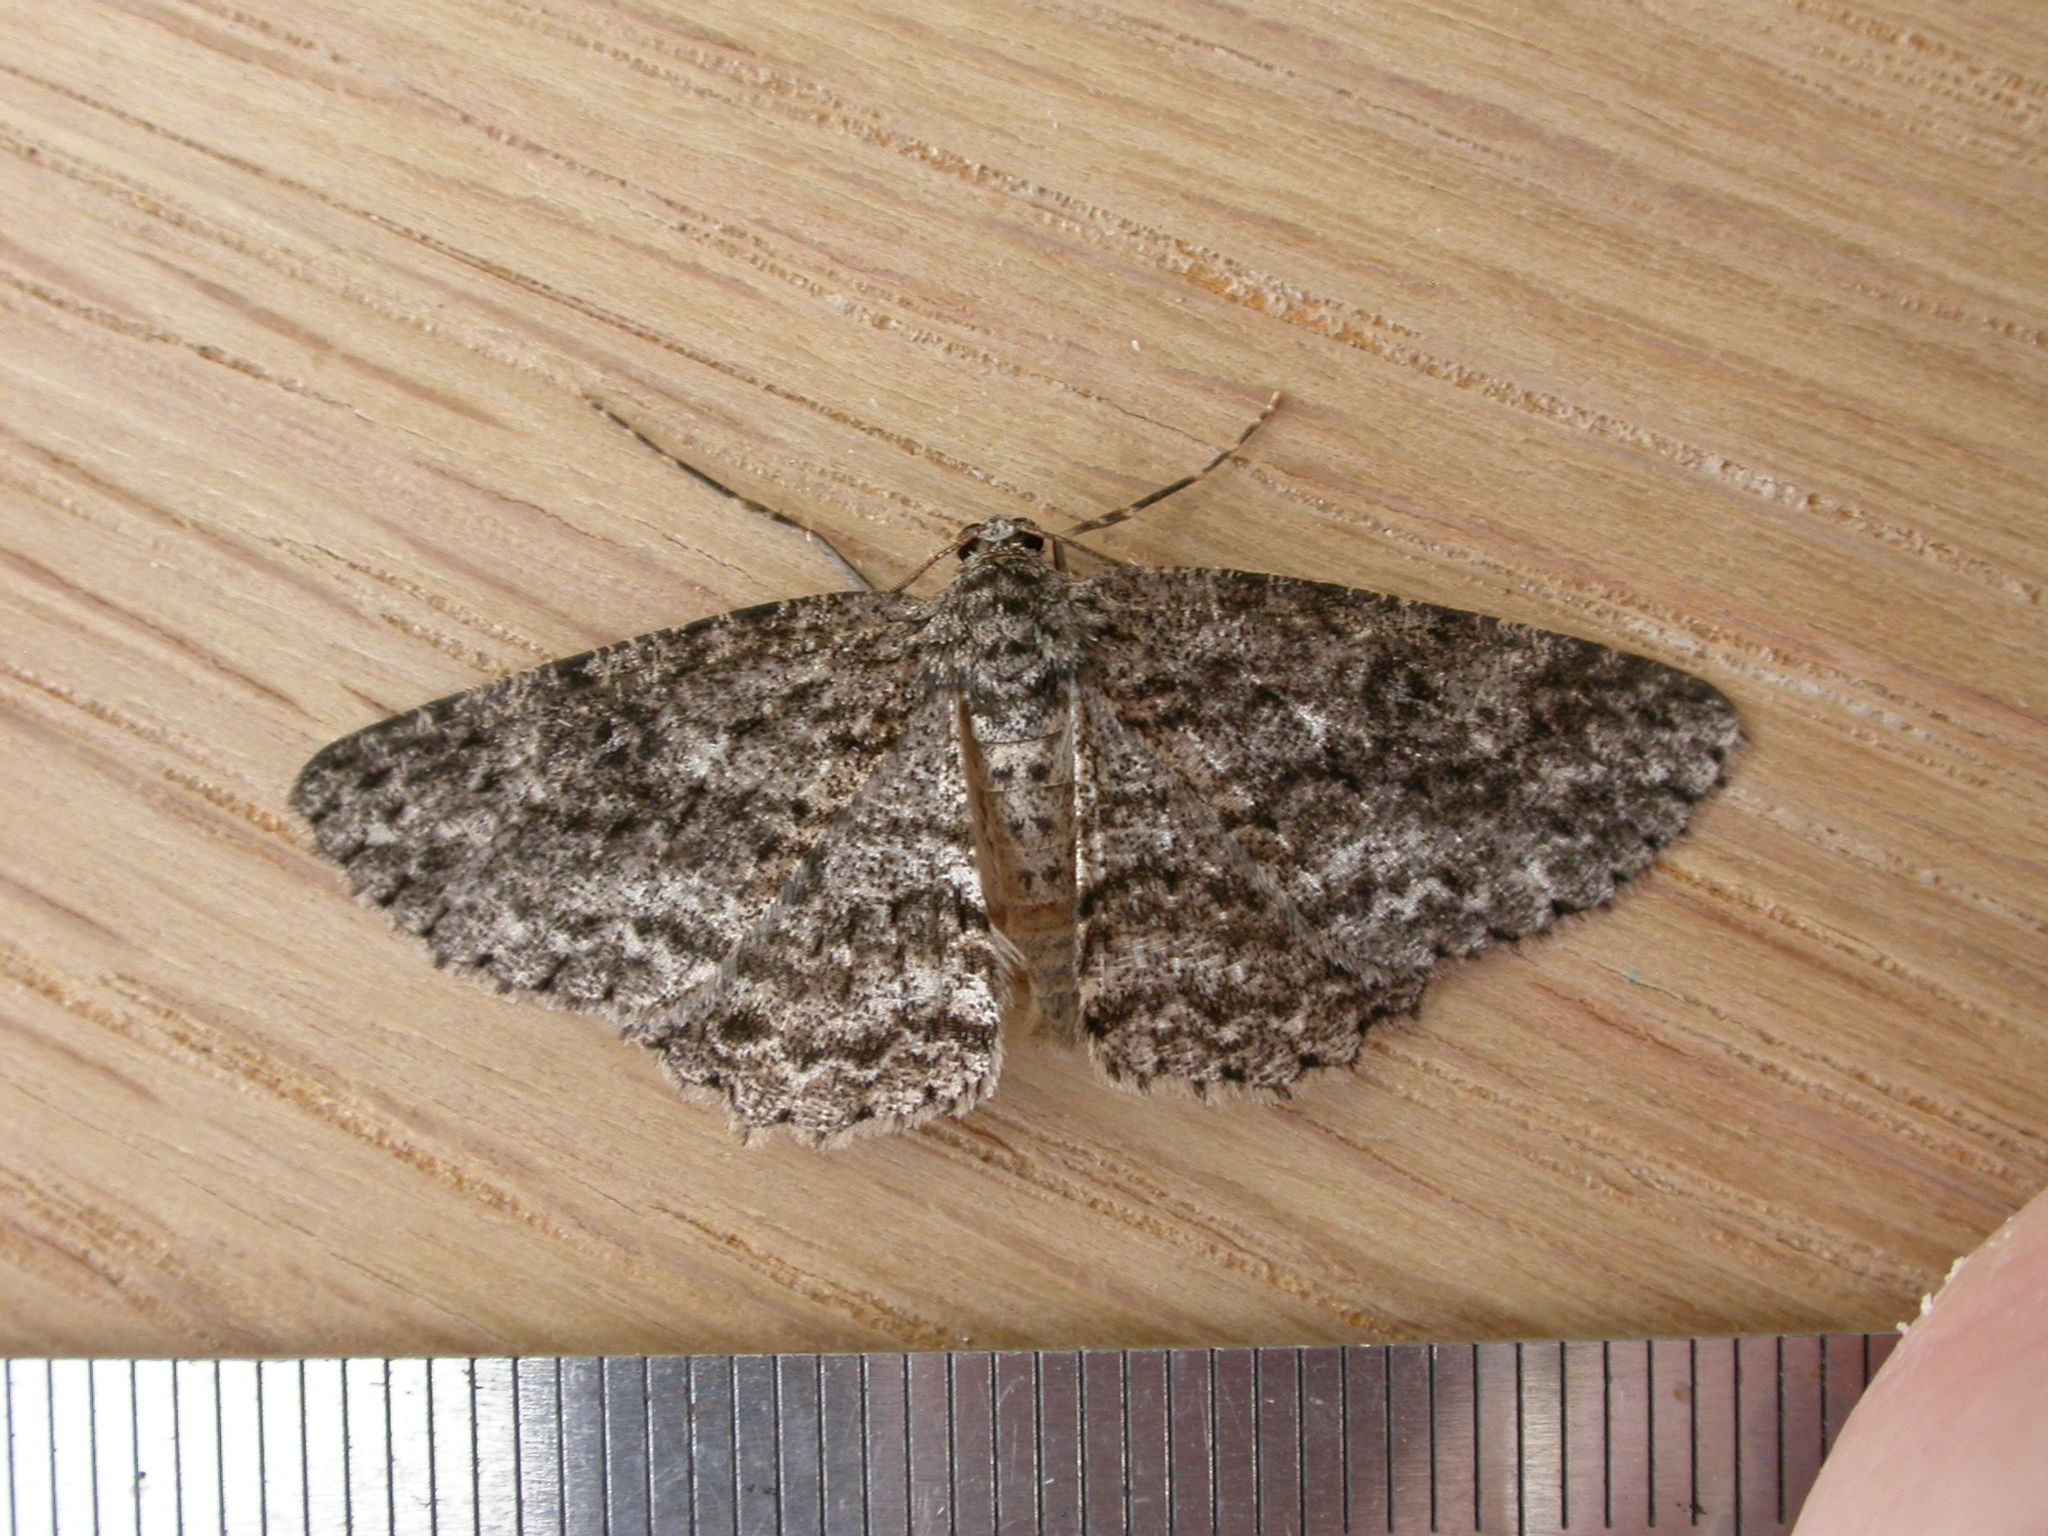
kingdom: Animalia
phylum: Arthropoda
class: Insecta
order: Lepidoptera
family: Geometridae
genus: Ectropis
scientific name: Ectropis fractaria
